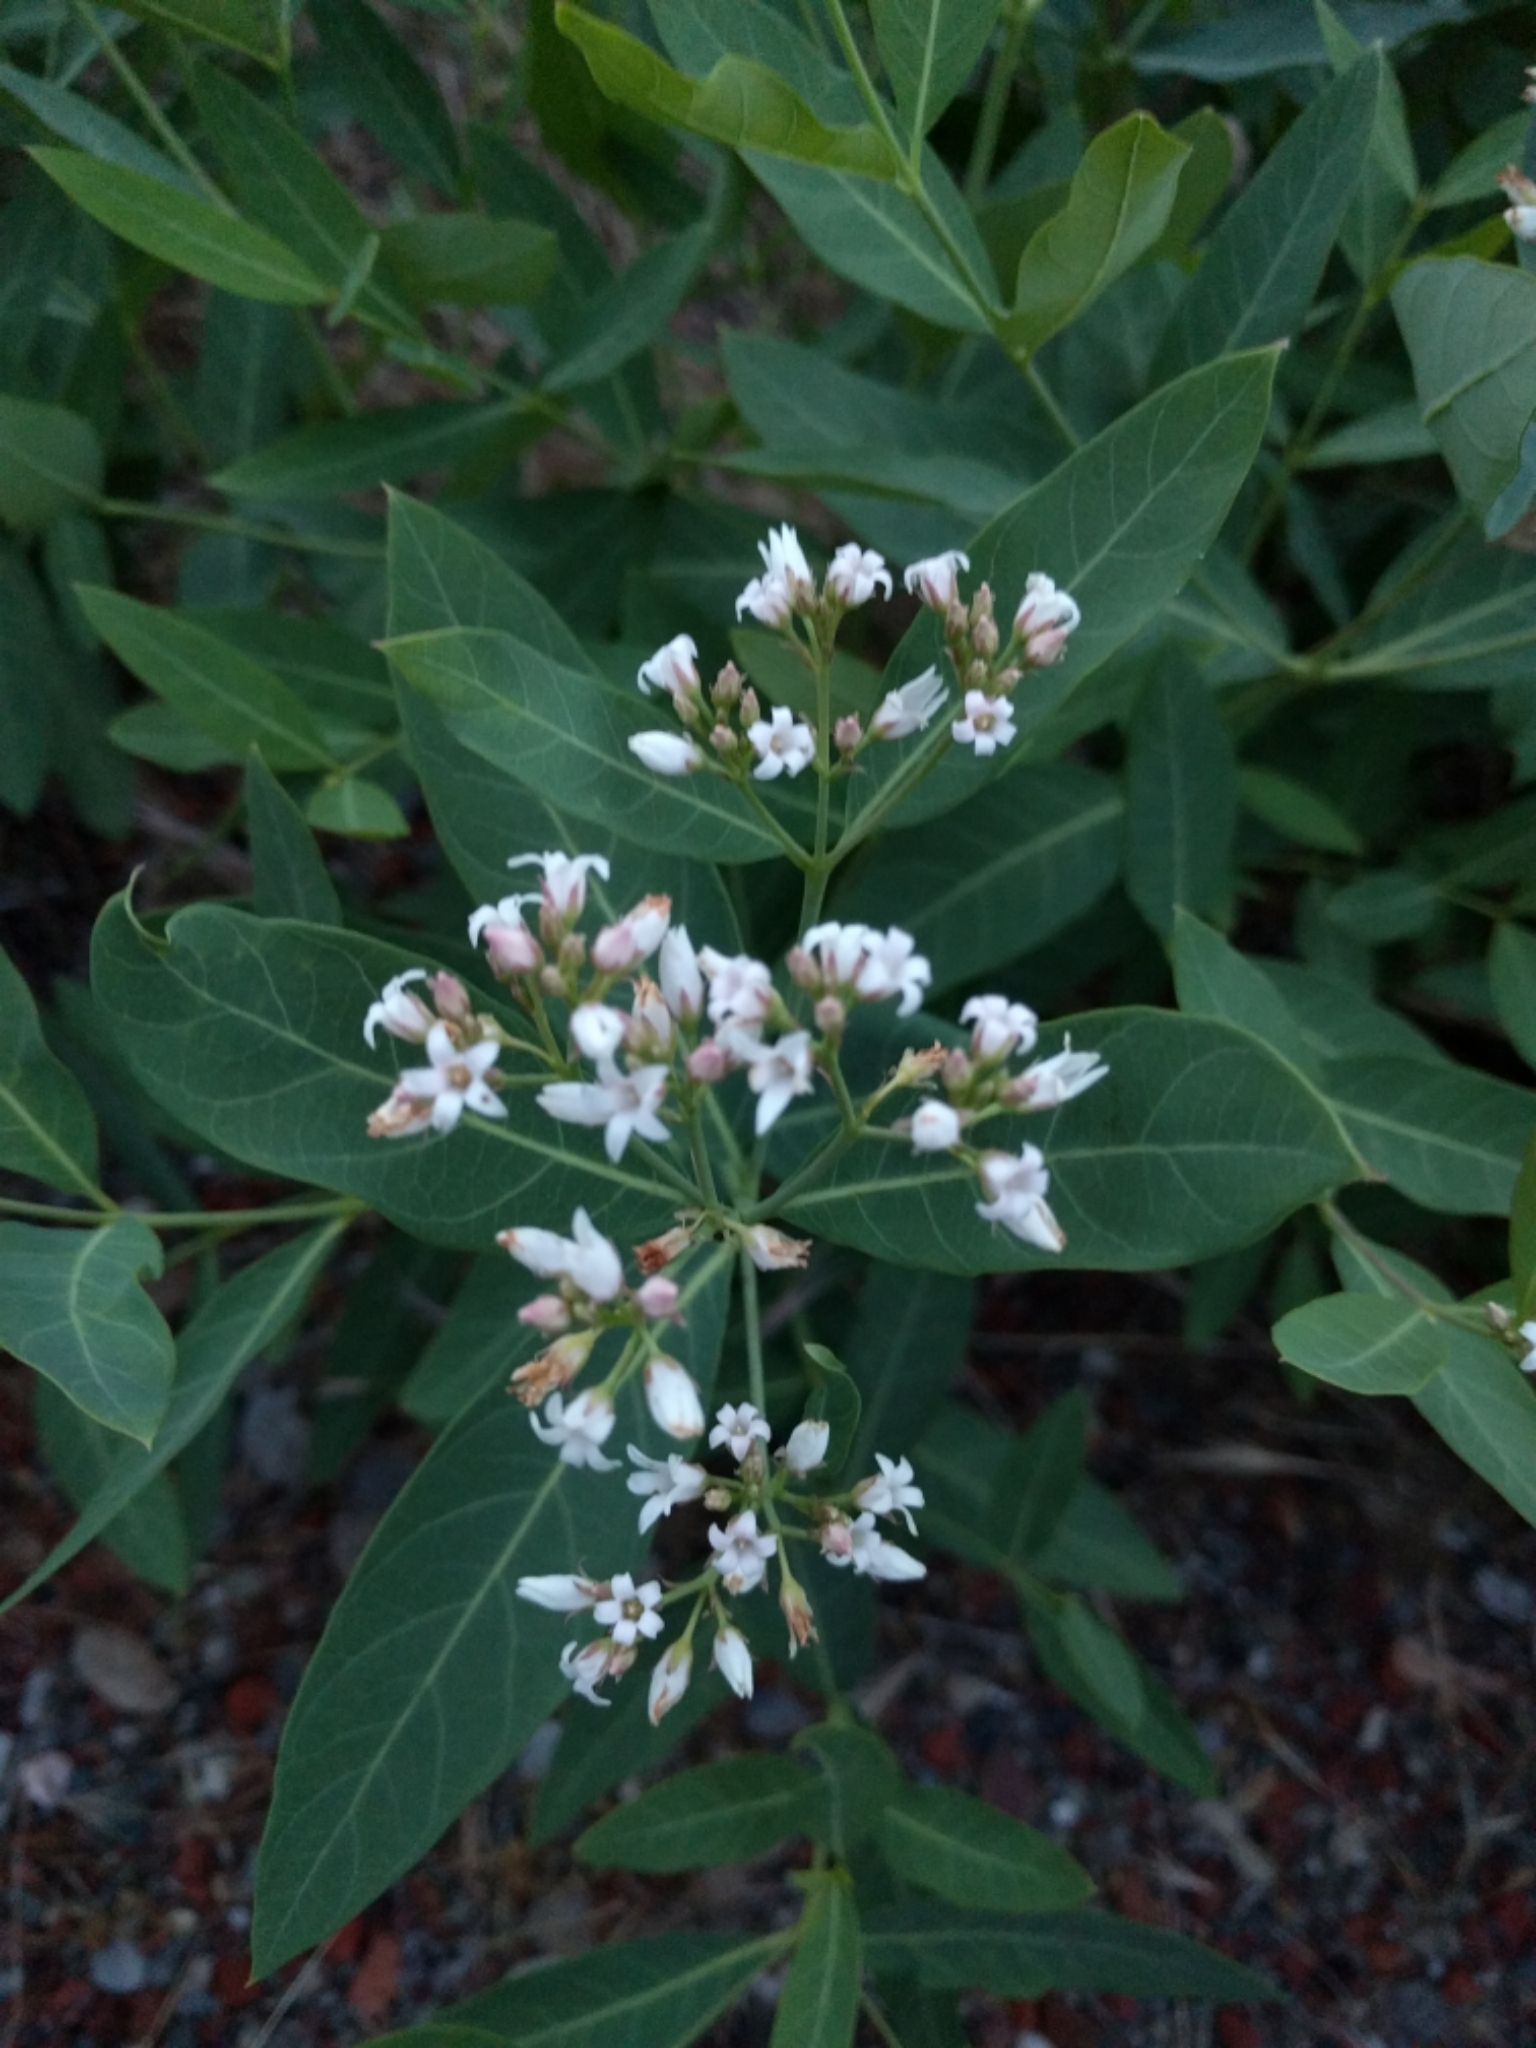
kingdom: Plantae
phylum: Tracheophyta
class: Magnoliopsida
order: Gentianales
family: Apocynaceae
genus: Apocynum
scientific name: Apocynum cannabinum
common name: Hemp dogbane
